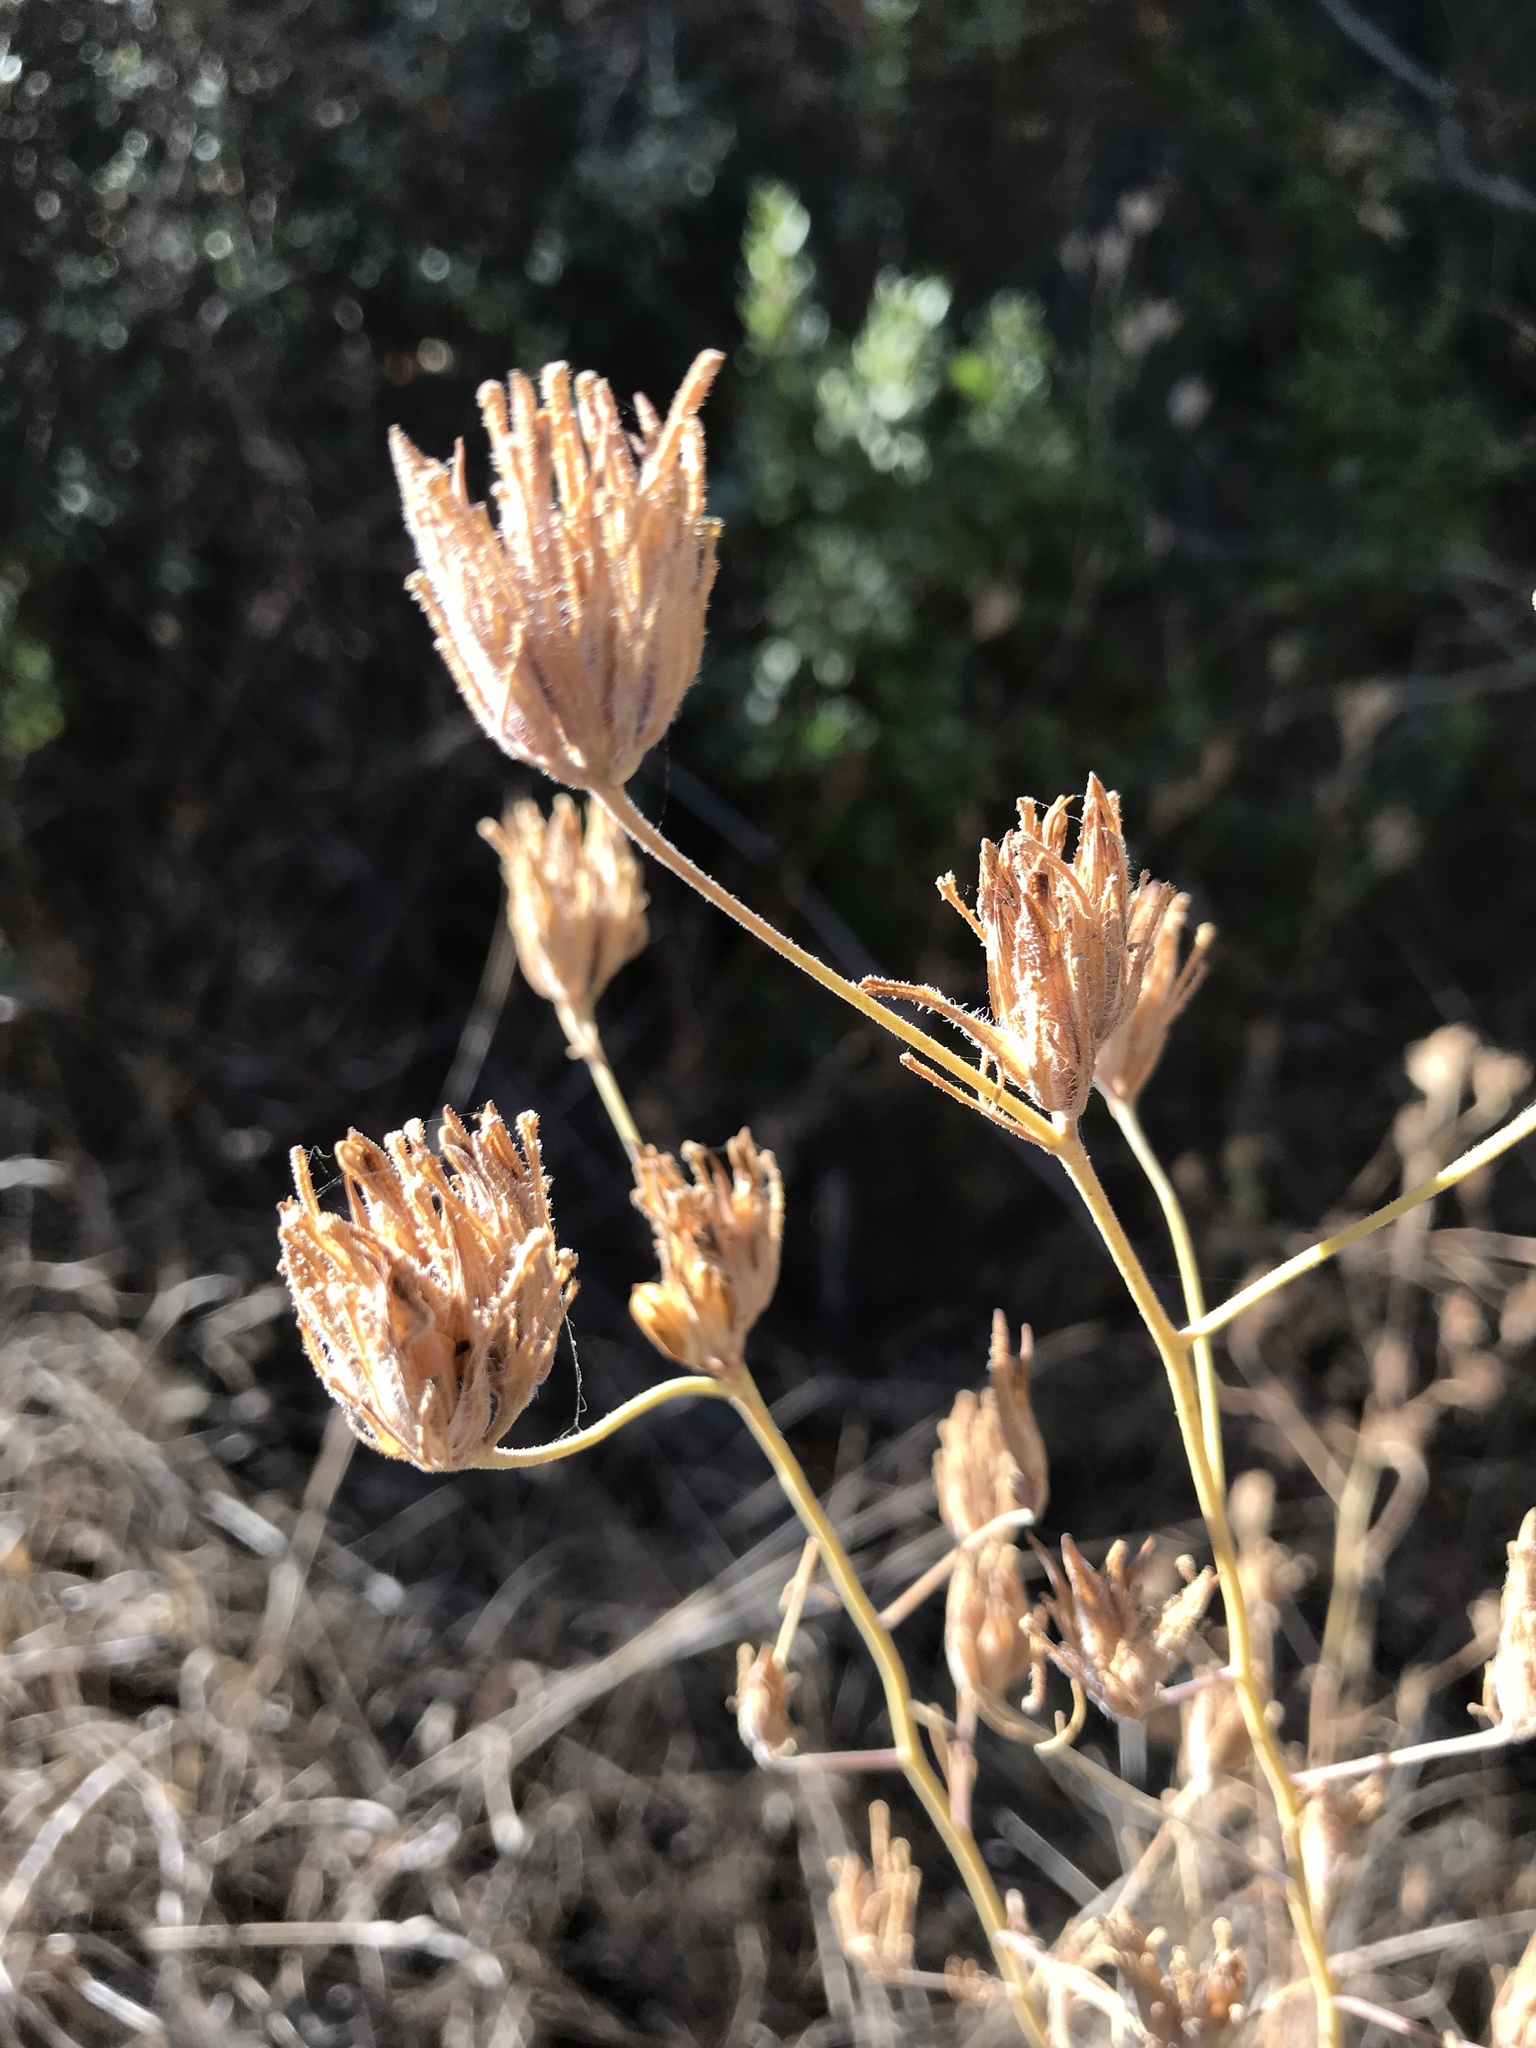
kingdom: Plantae
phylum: Tracheophyta
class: Magnoliopsida
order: Lamiales
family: Orobanchaceae
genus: Cordylanthus
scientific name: Cordylanthus rigidus
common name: Stiff-branch bird's-beak
